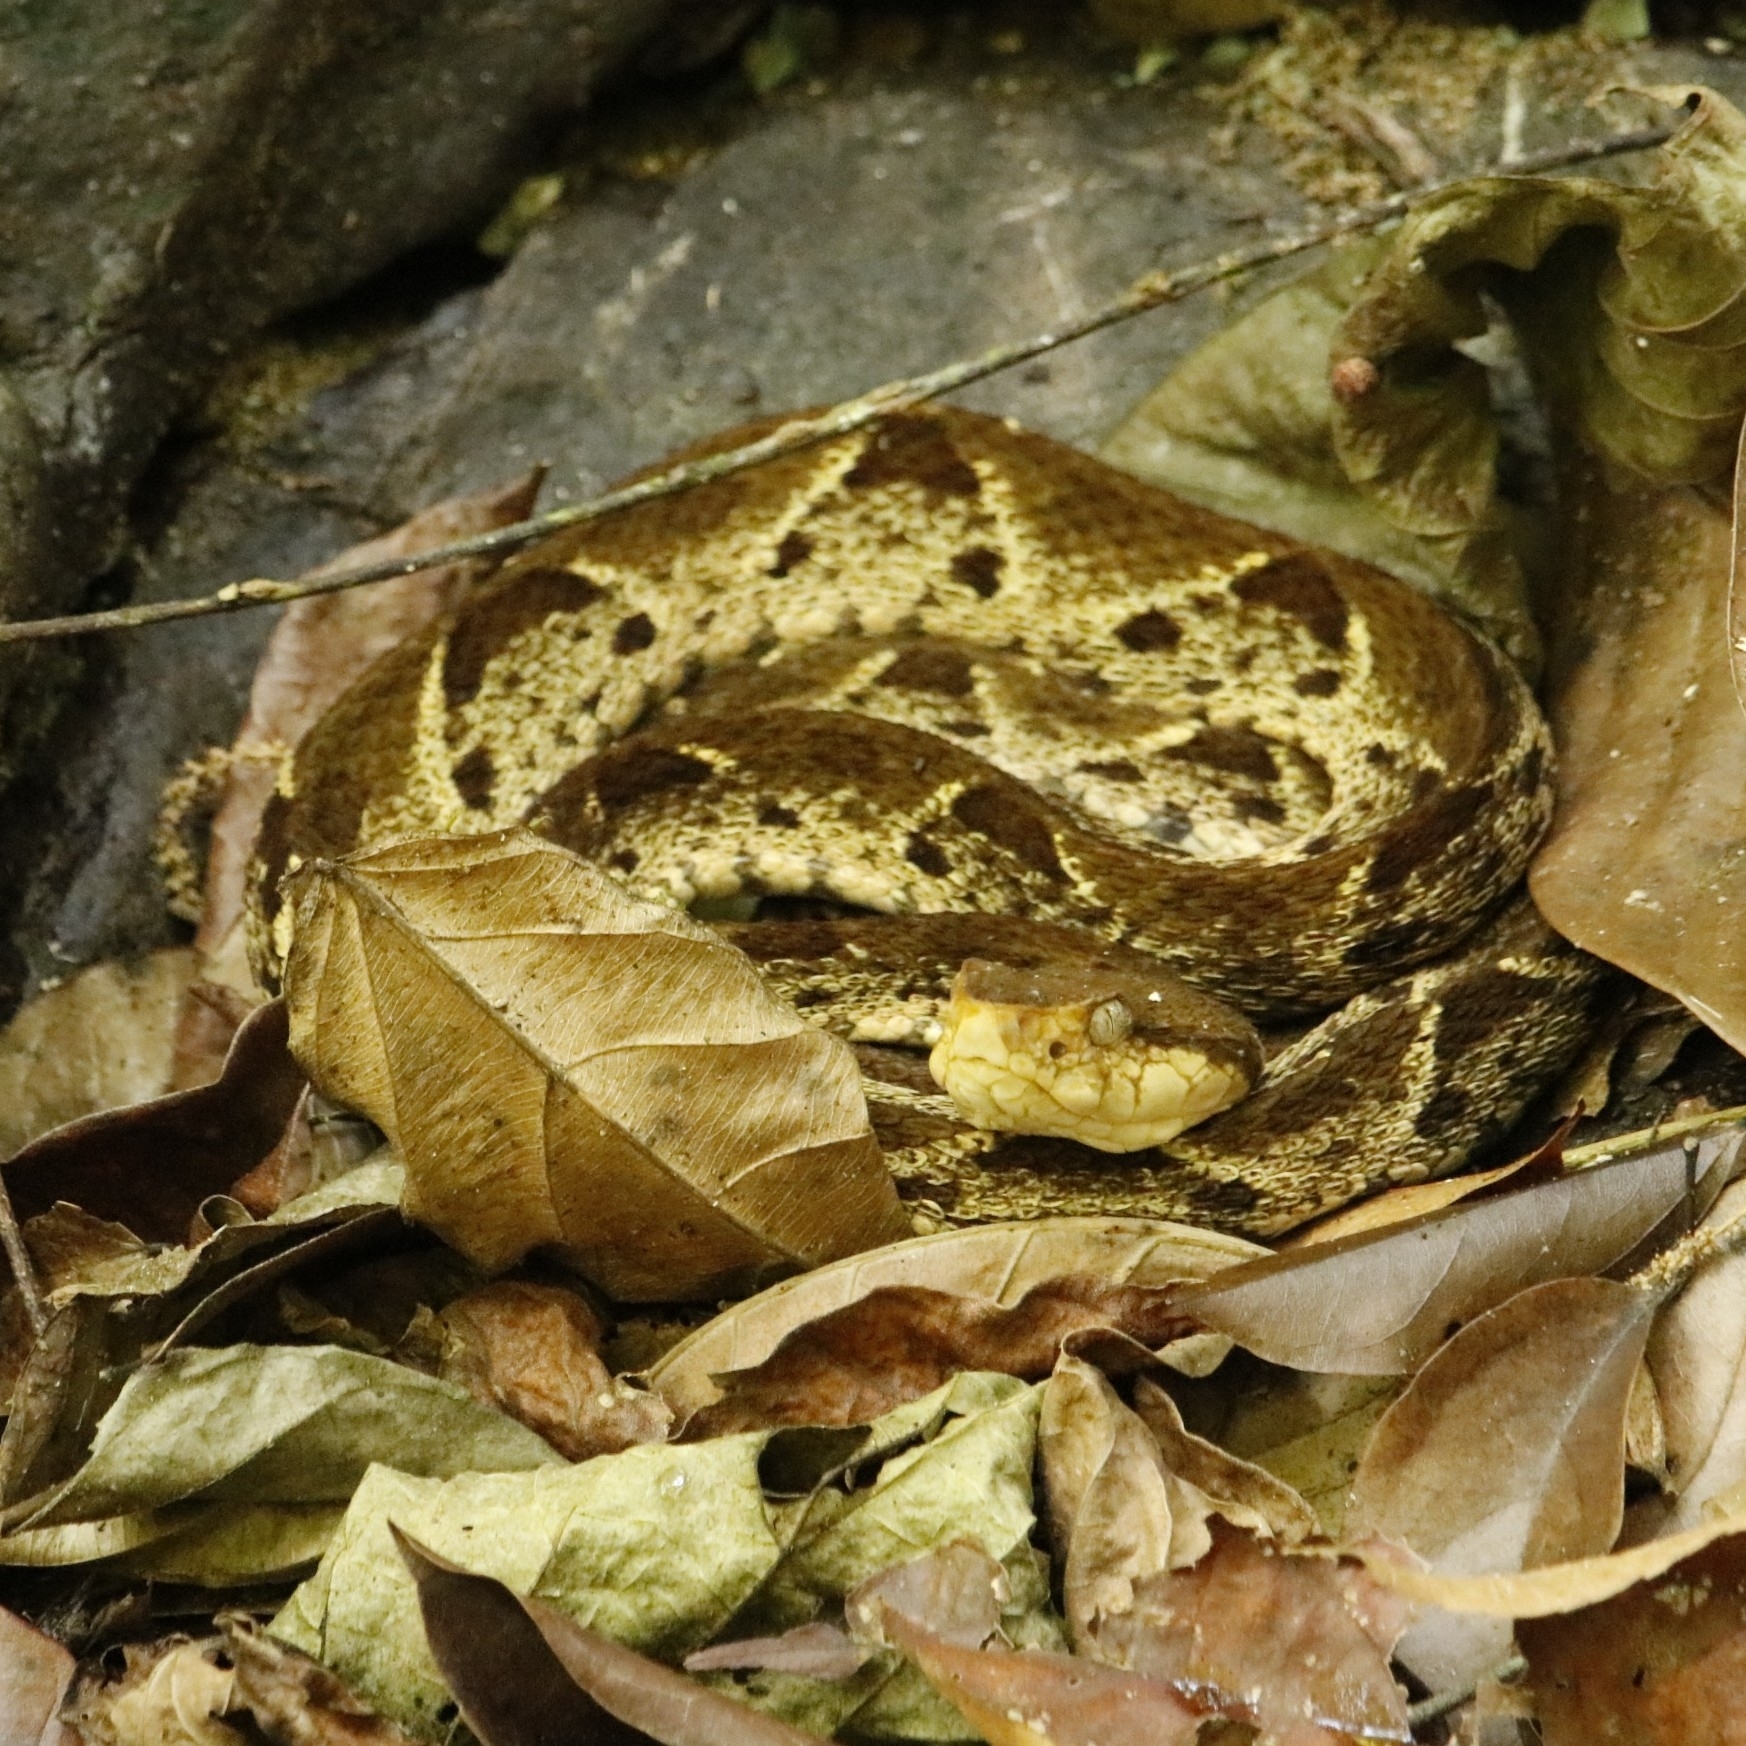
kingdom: Animalia
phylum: Chordata
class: Squamata
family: Viperidae
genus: Bothrops
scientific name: Bothrops asper
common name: Terciopelo
